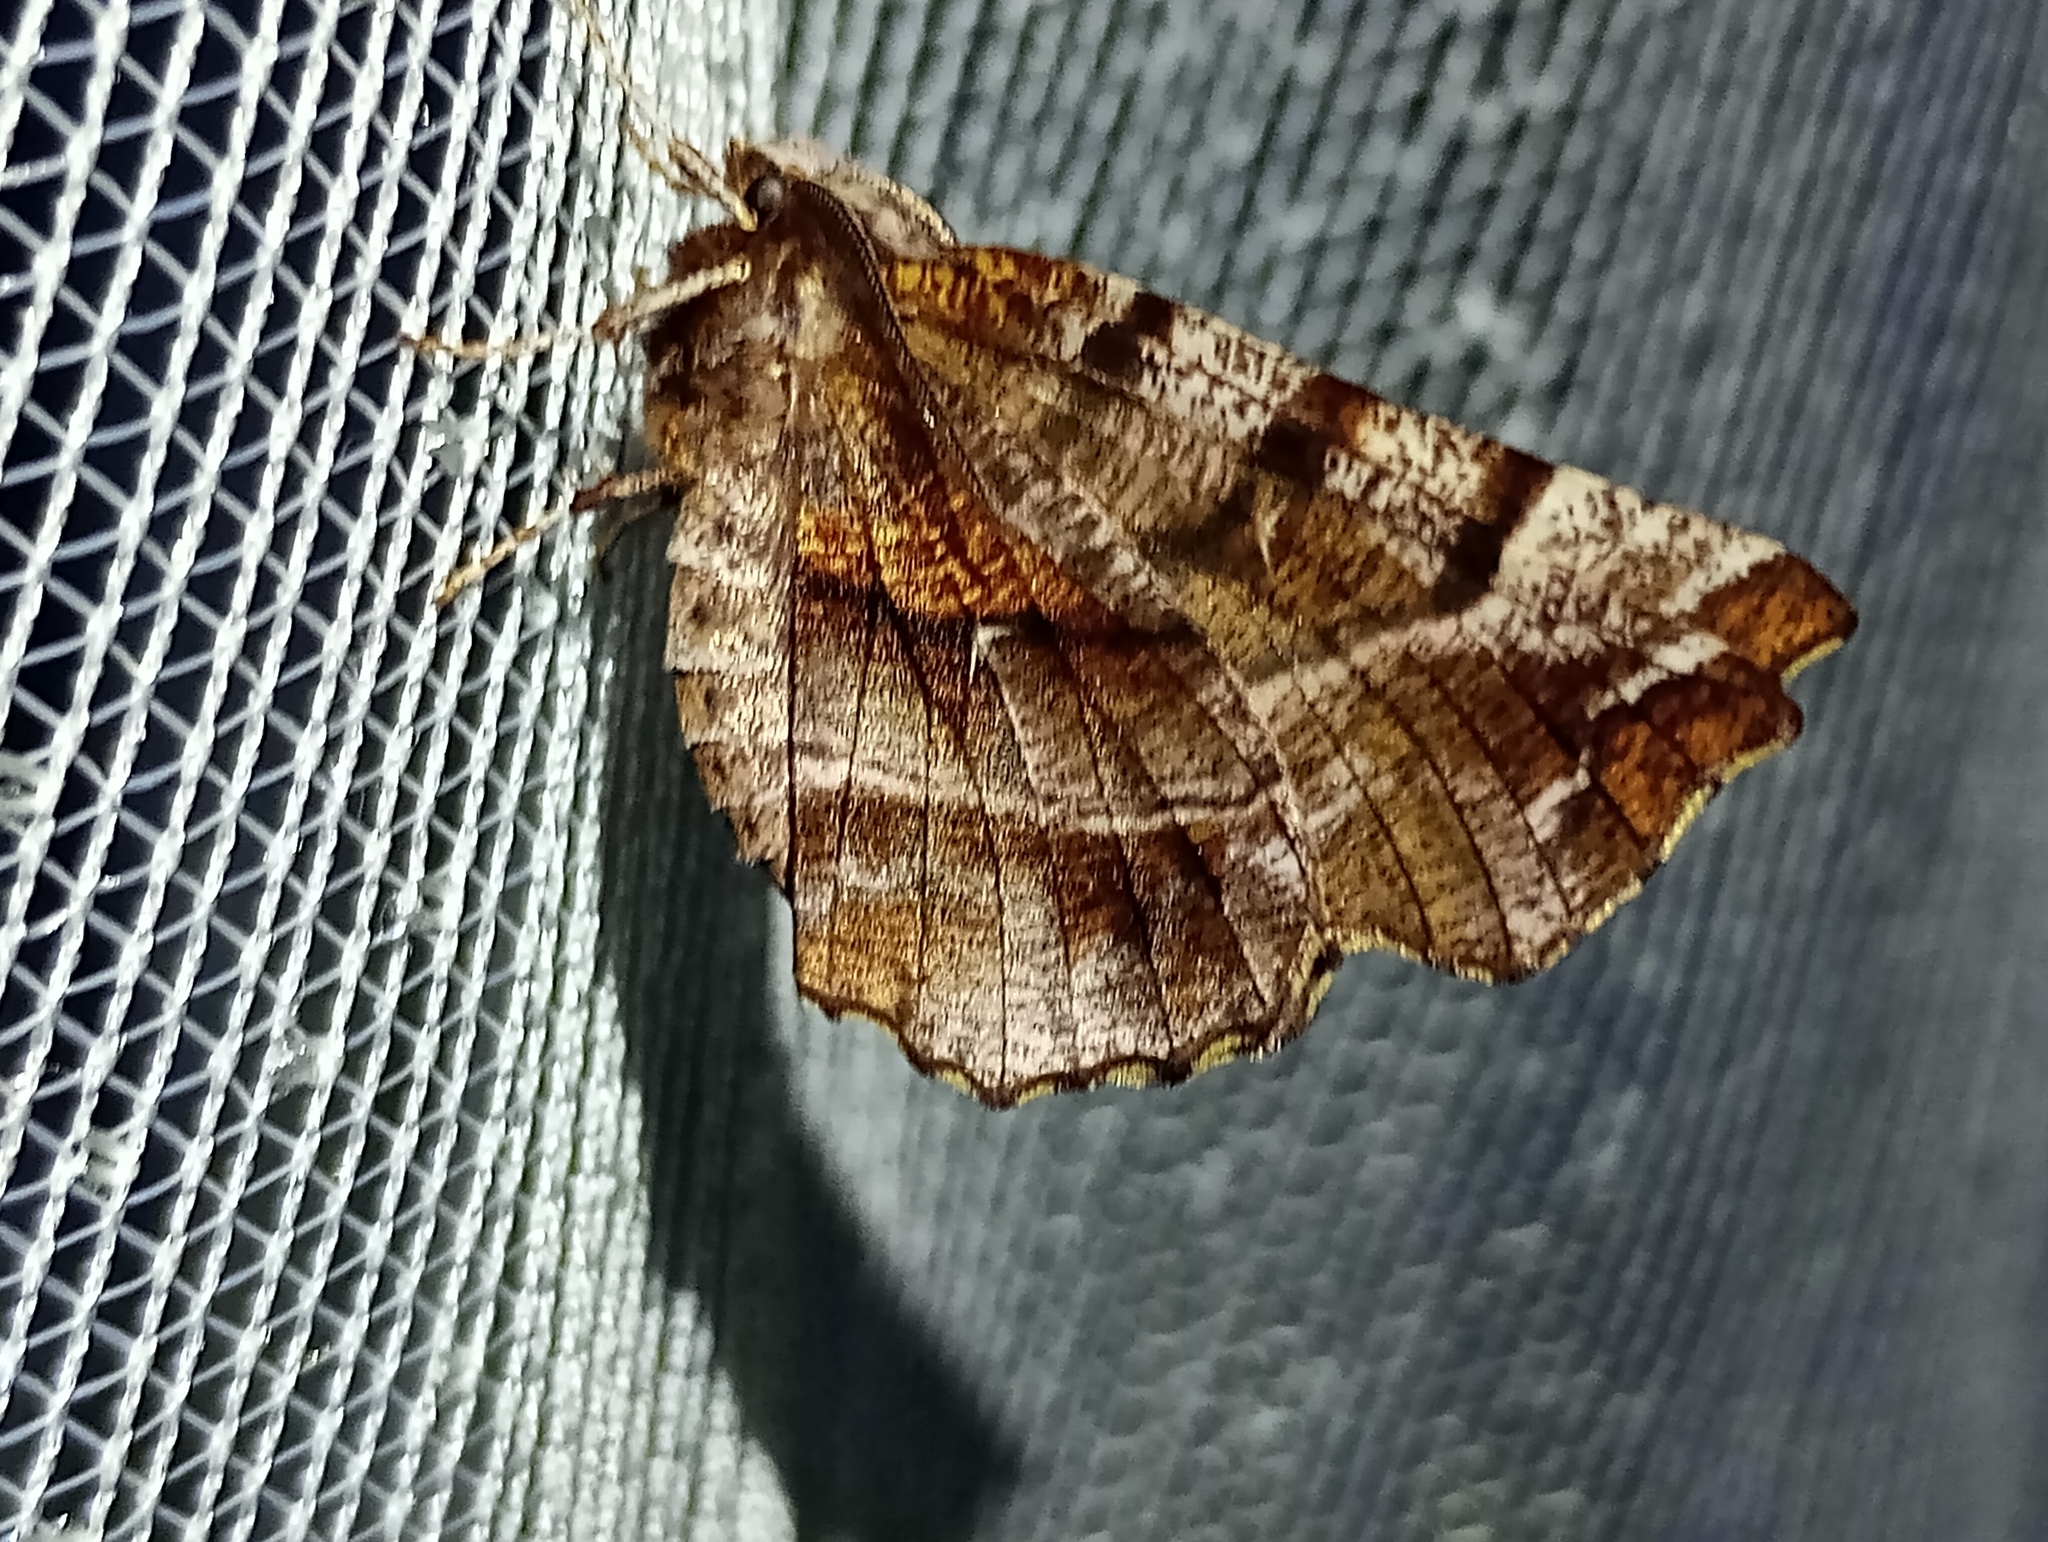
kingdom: Animalia
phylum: Arthropoda
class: Insecta
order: Lepidoptera
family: Geometridae
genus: Selenia
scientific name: Selenia dentaria
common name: Early thorn
